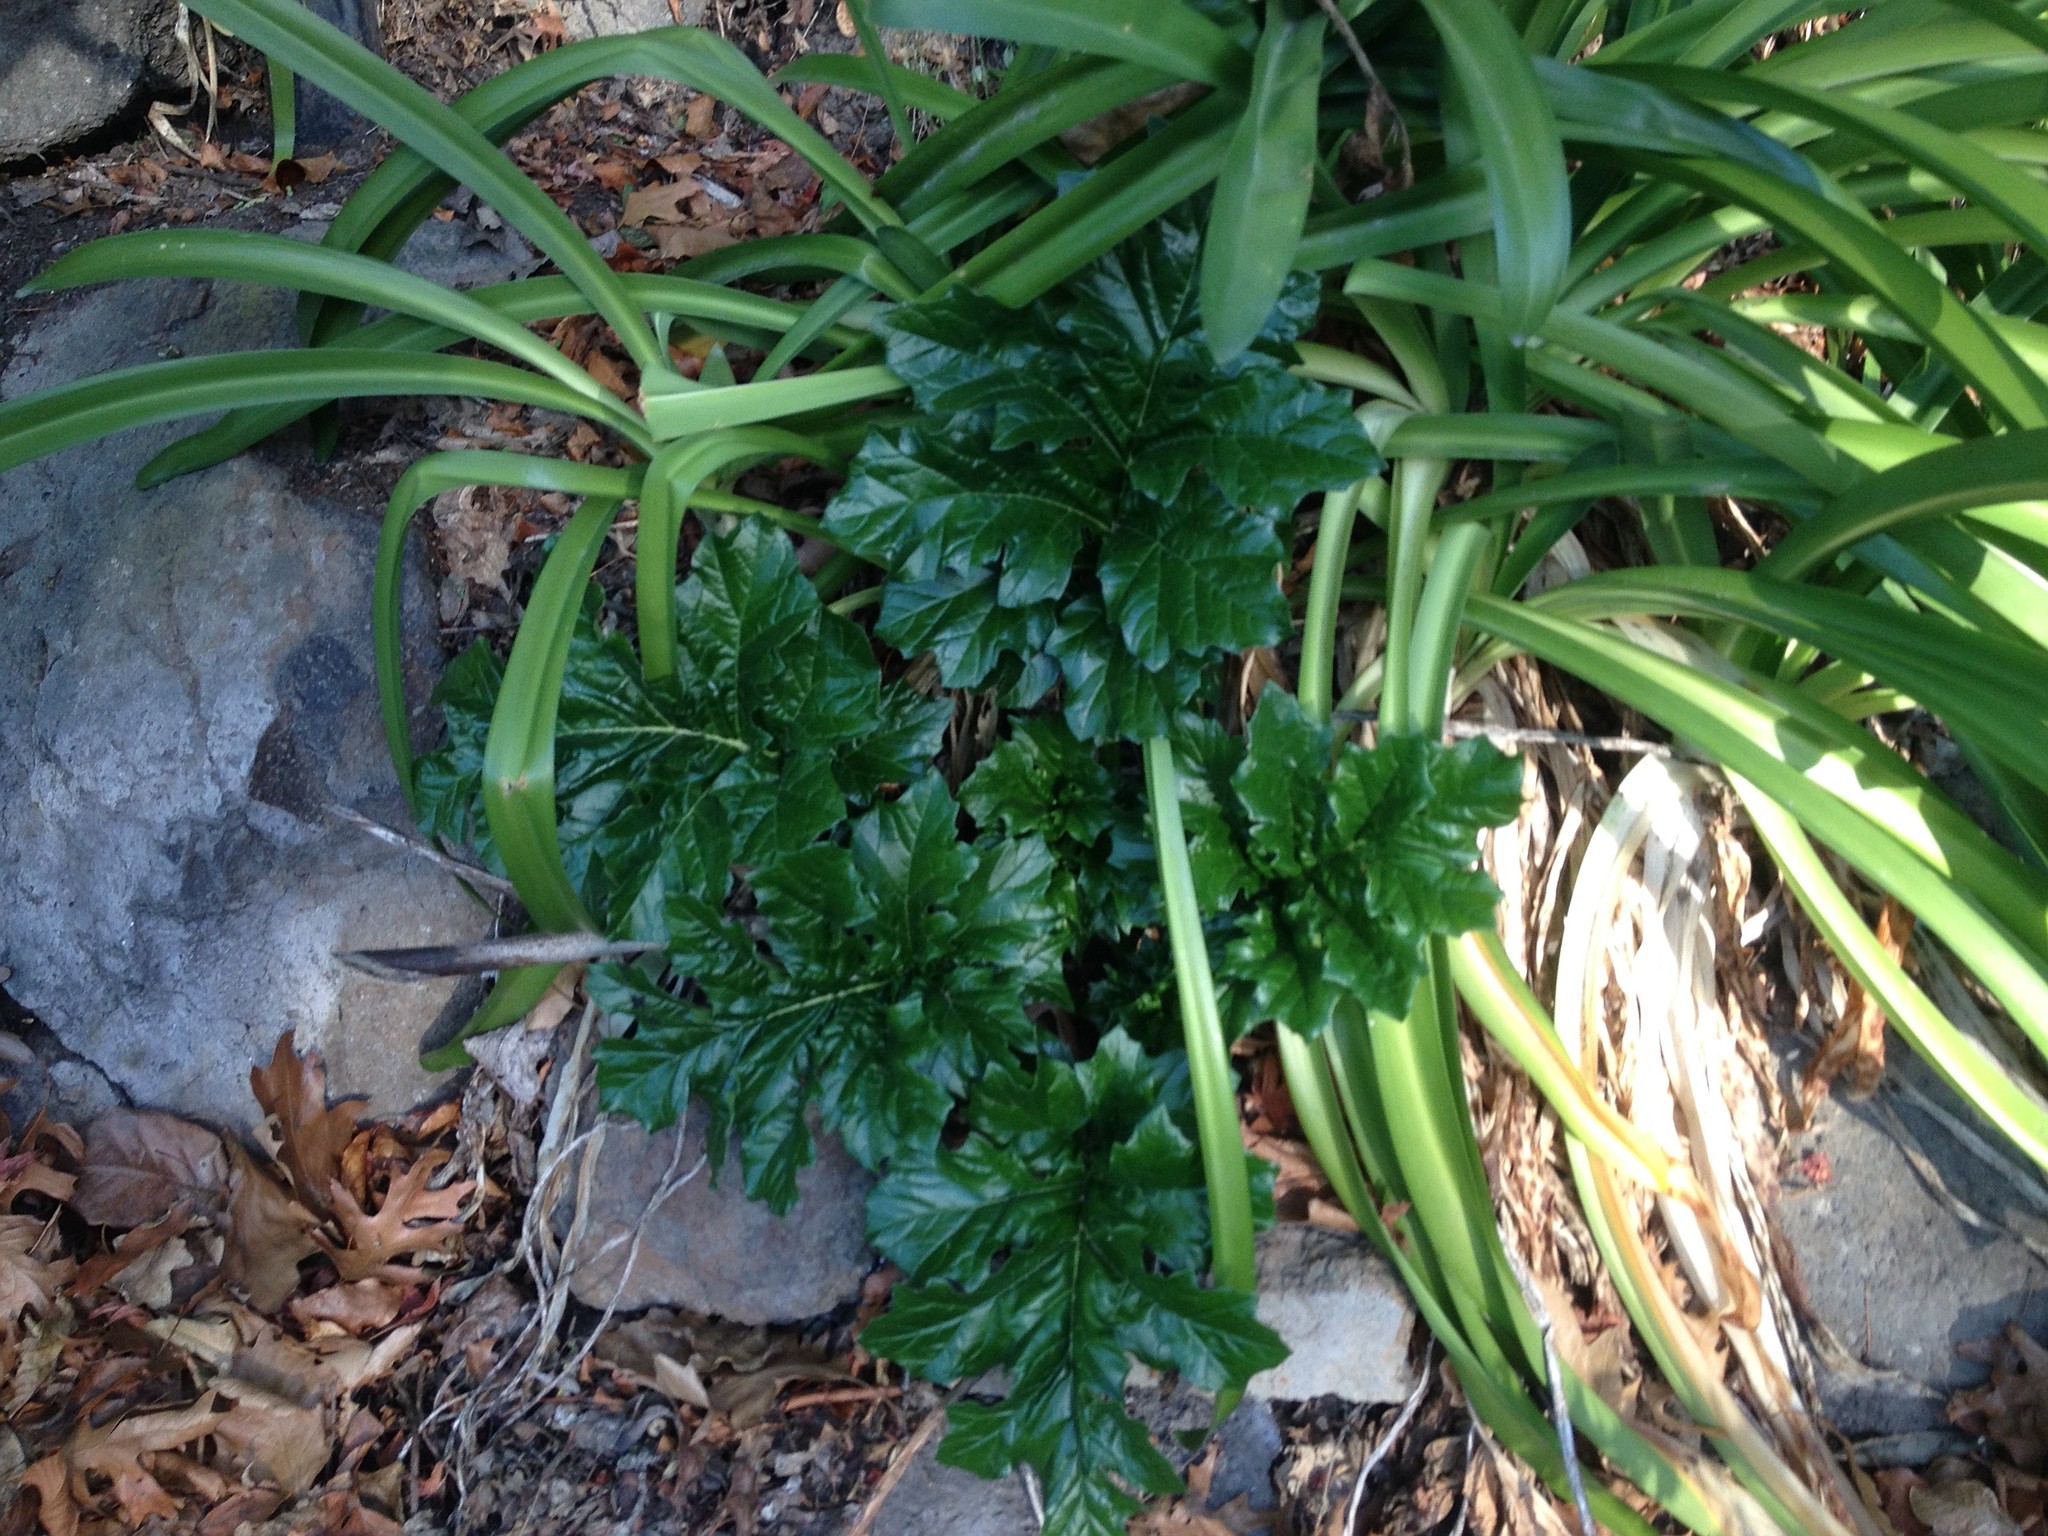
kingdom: Plantae
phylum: Tracheophyta
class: Magnoliopsida
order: Lamiales
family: Acanthaceae
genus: Acanthus
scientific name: Acanthus mollis
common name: Bear's-breech
